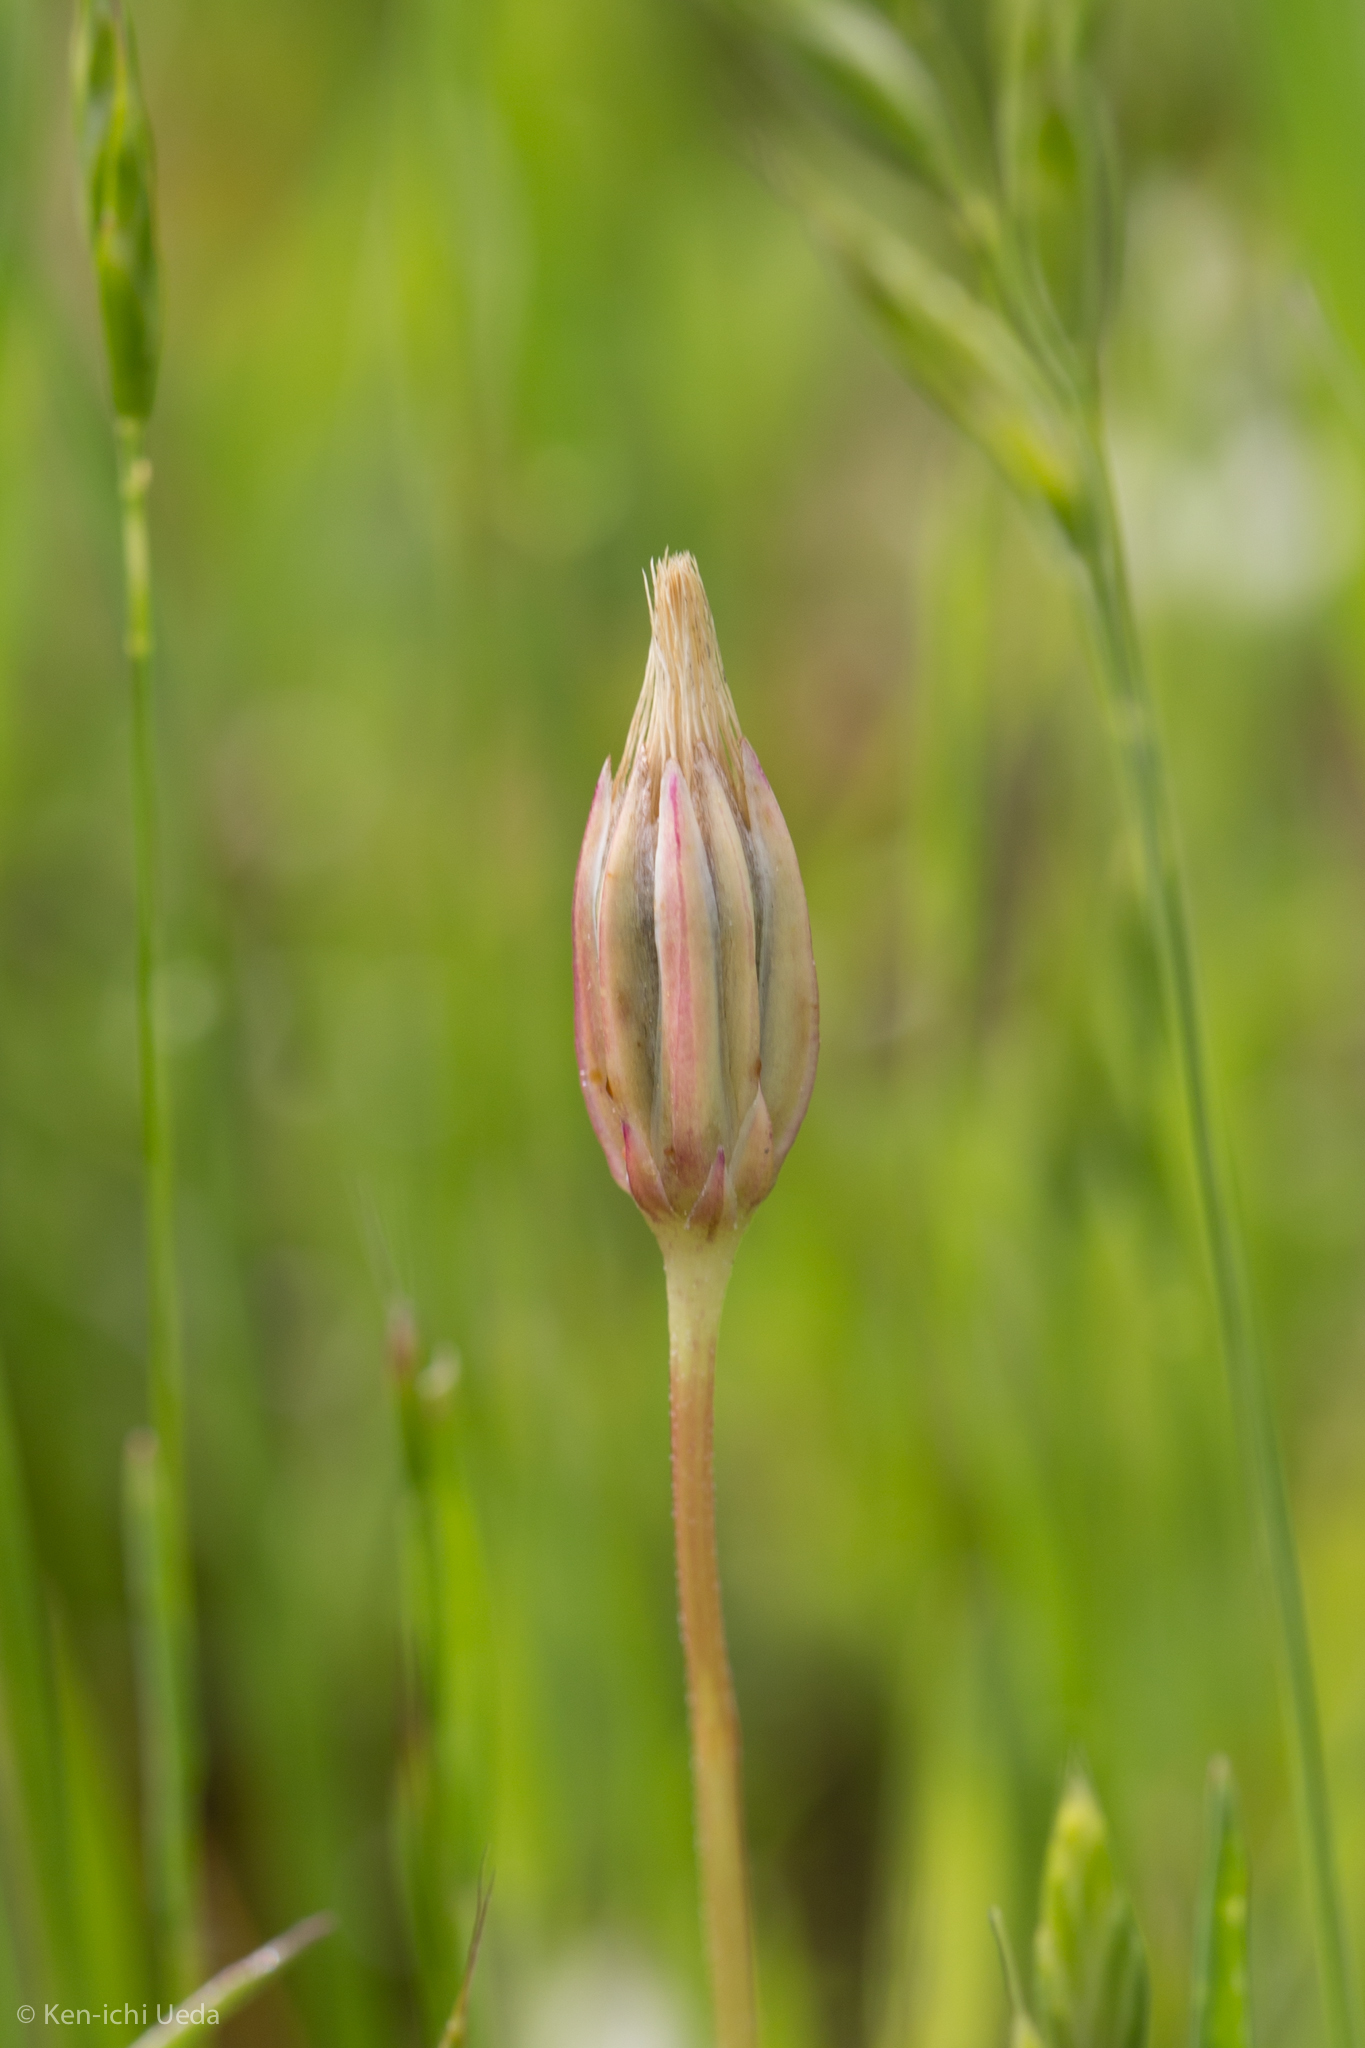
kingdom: Plantae
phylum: Tracheophyta
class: Magnoliopsida
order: Asterales
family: Asteraceae
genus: Microseris
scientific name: Microseris douglasii
